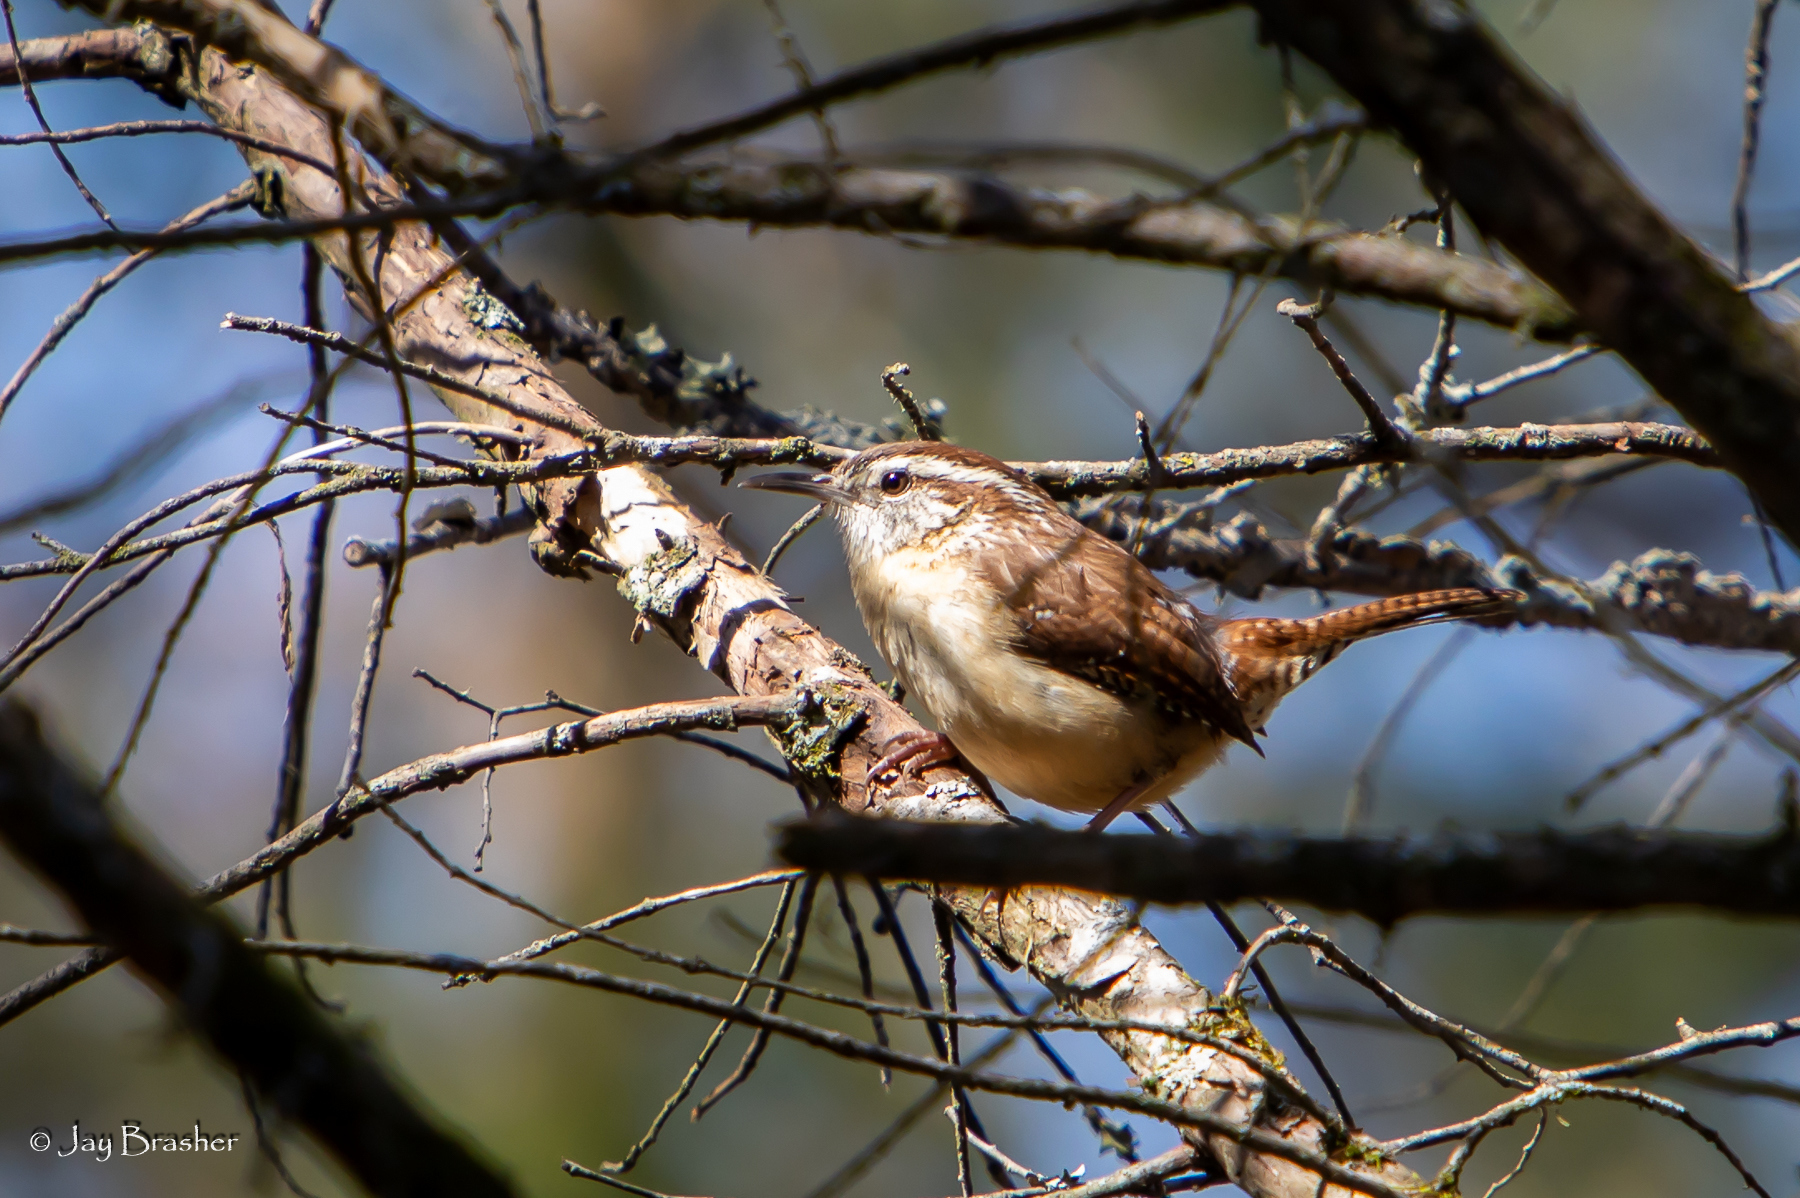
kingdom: Animalia
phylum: Chordata
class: Aves
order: Passeriformes
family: Troglodytidae
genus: Thryothorus
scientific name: Thryothorus ludovicianus
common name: Carolina wren
